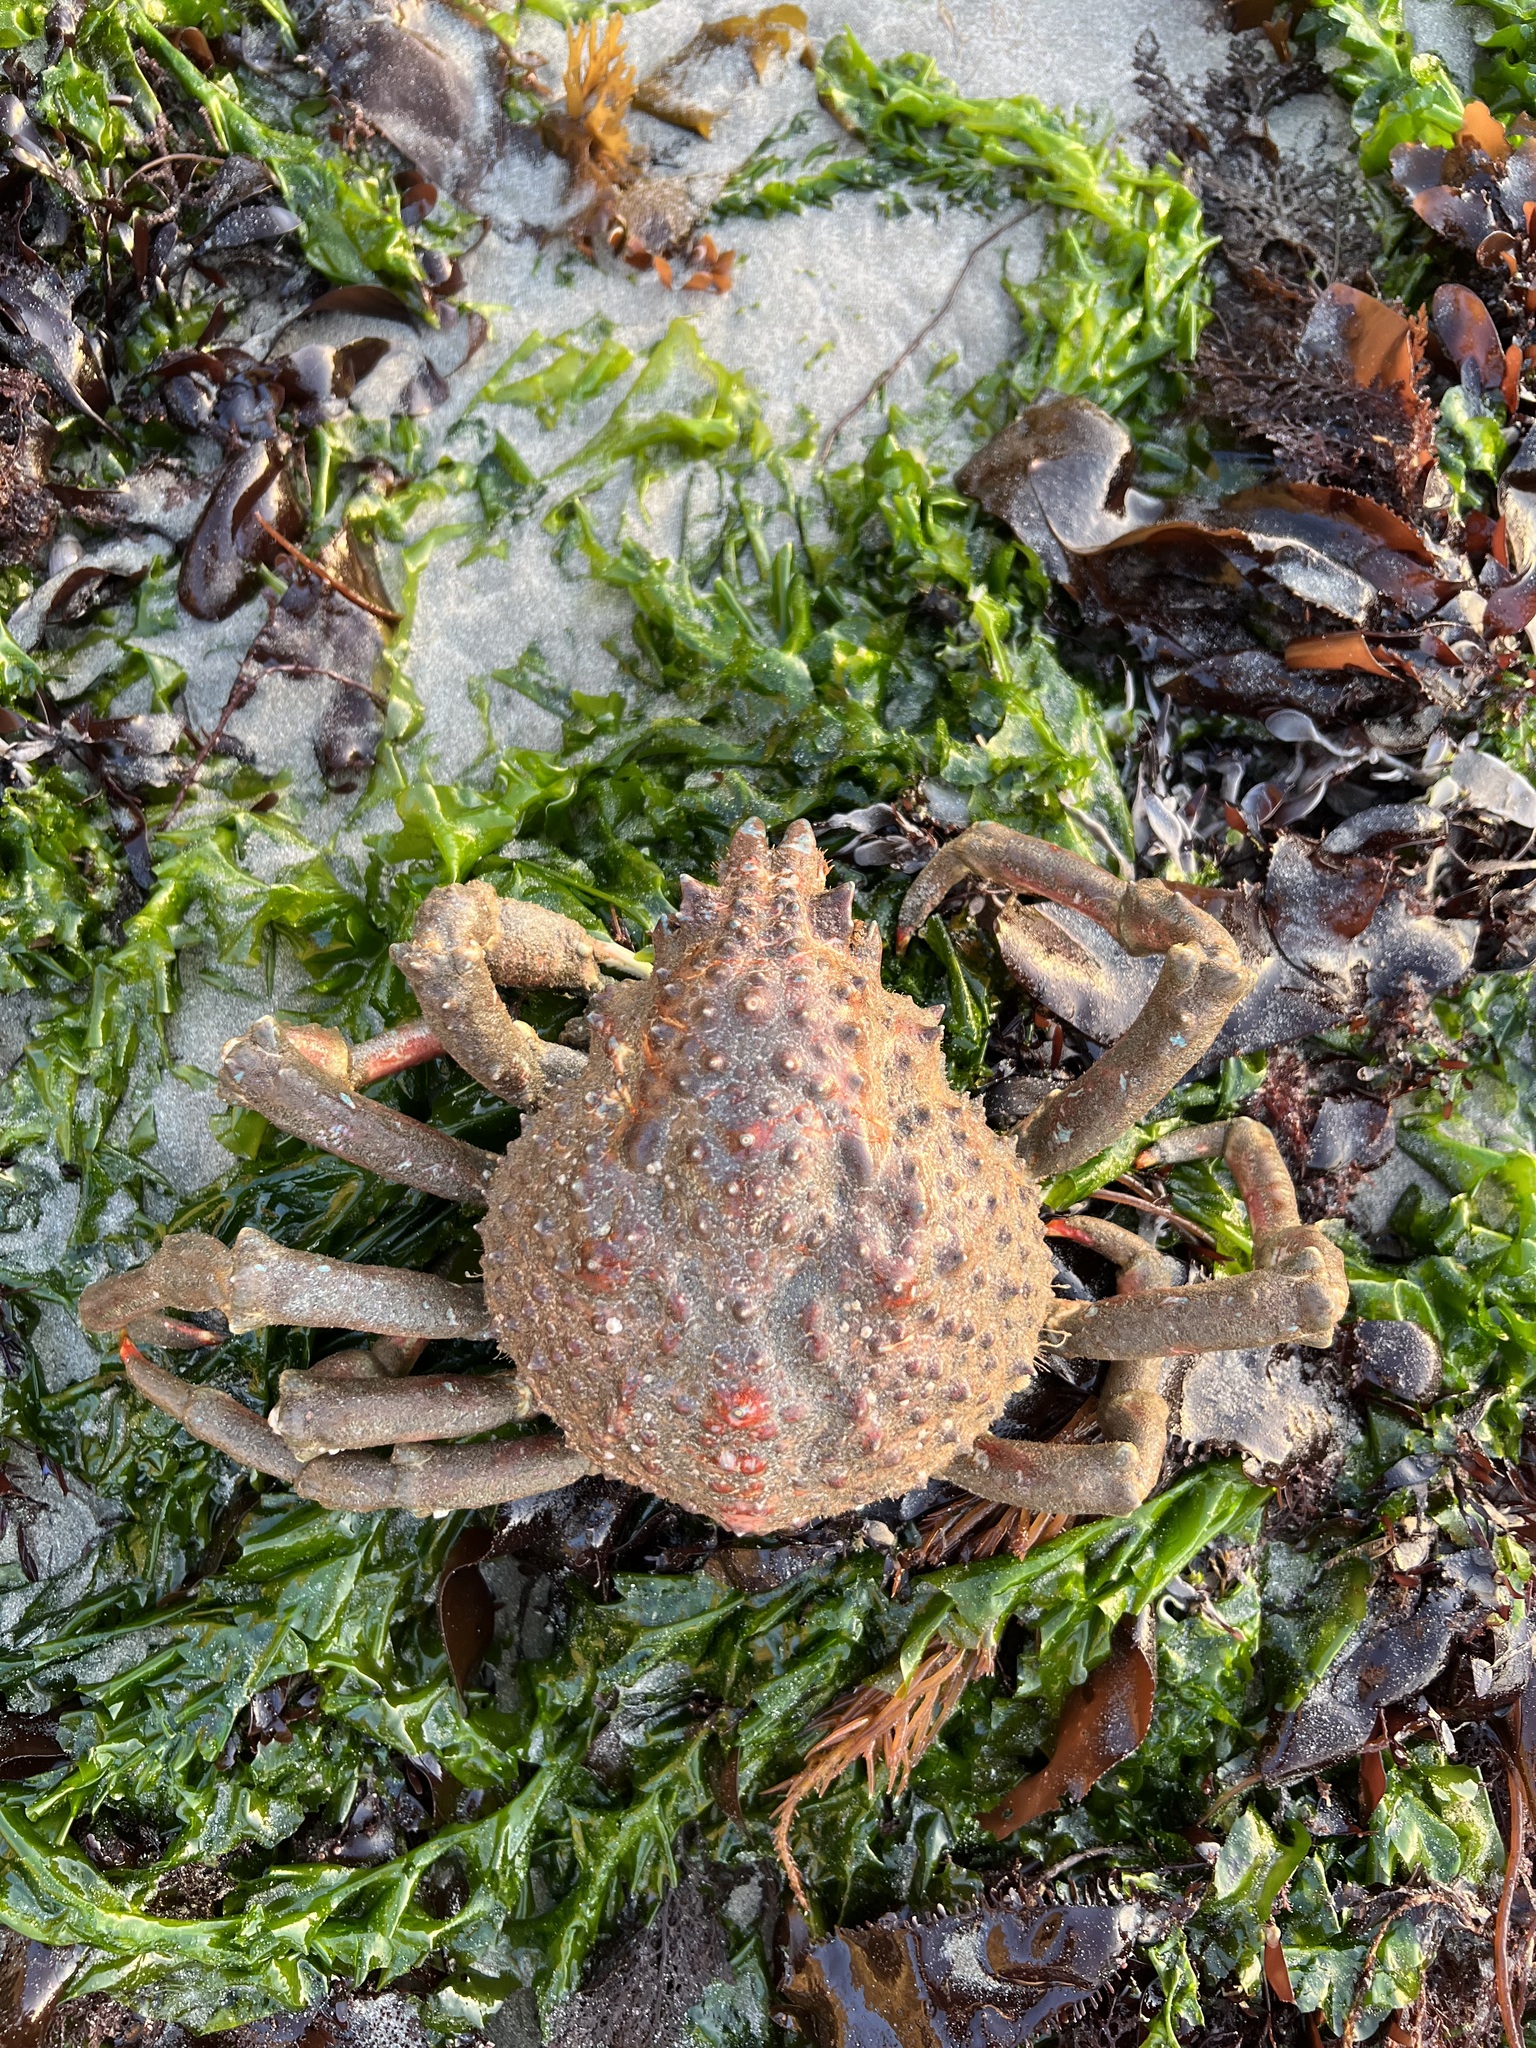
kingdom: Animalia
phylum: Arthropoda
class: Malacostraca
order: Decapoda
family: Epialtidae
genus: Loxorhynchus
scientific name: Loxorhynchus grandis
